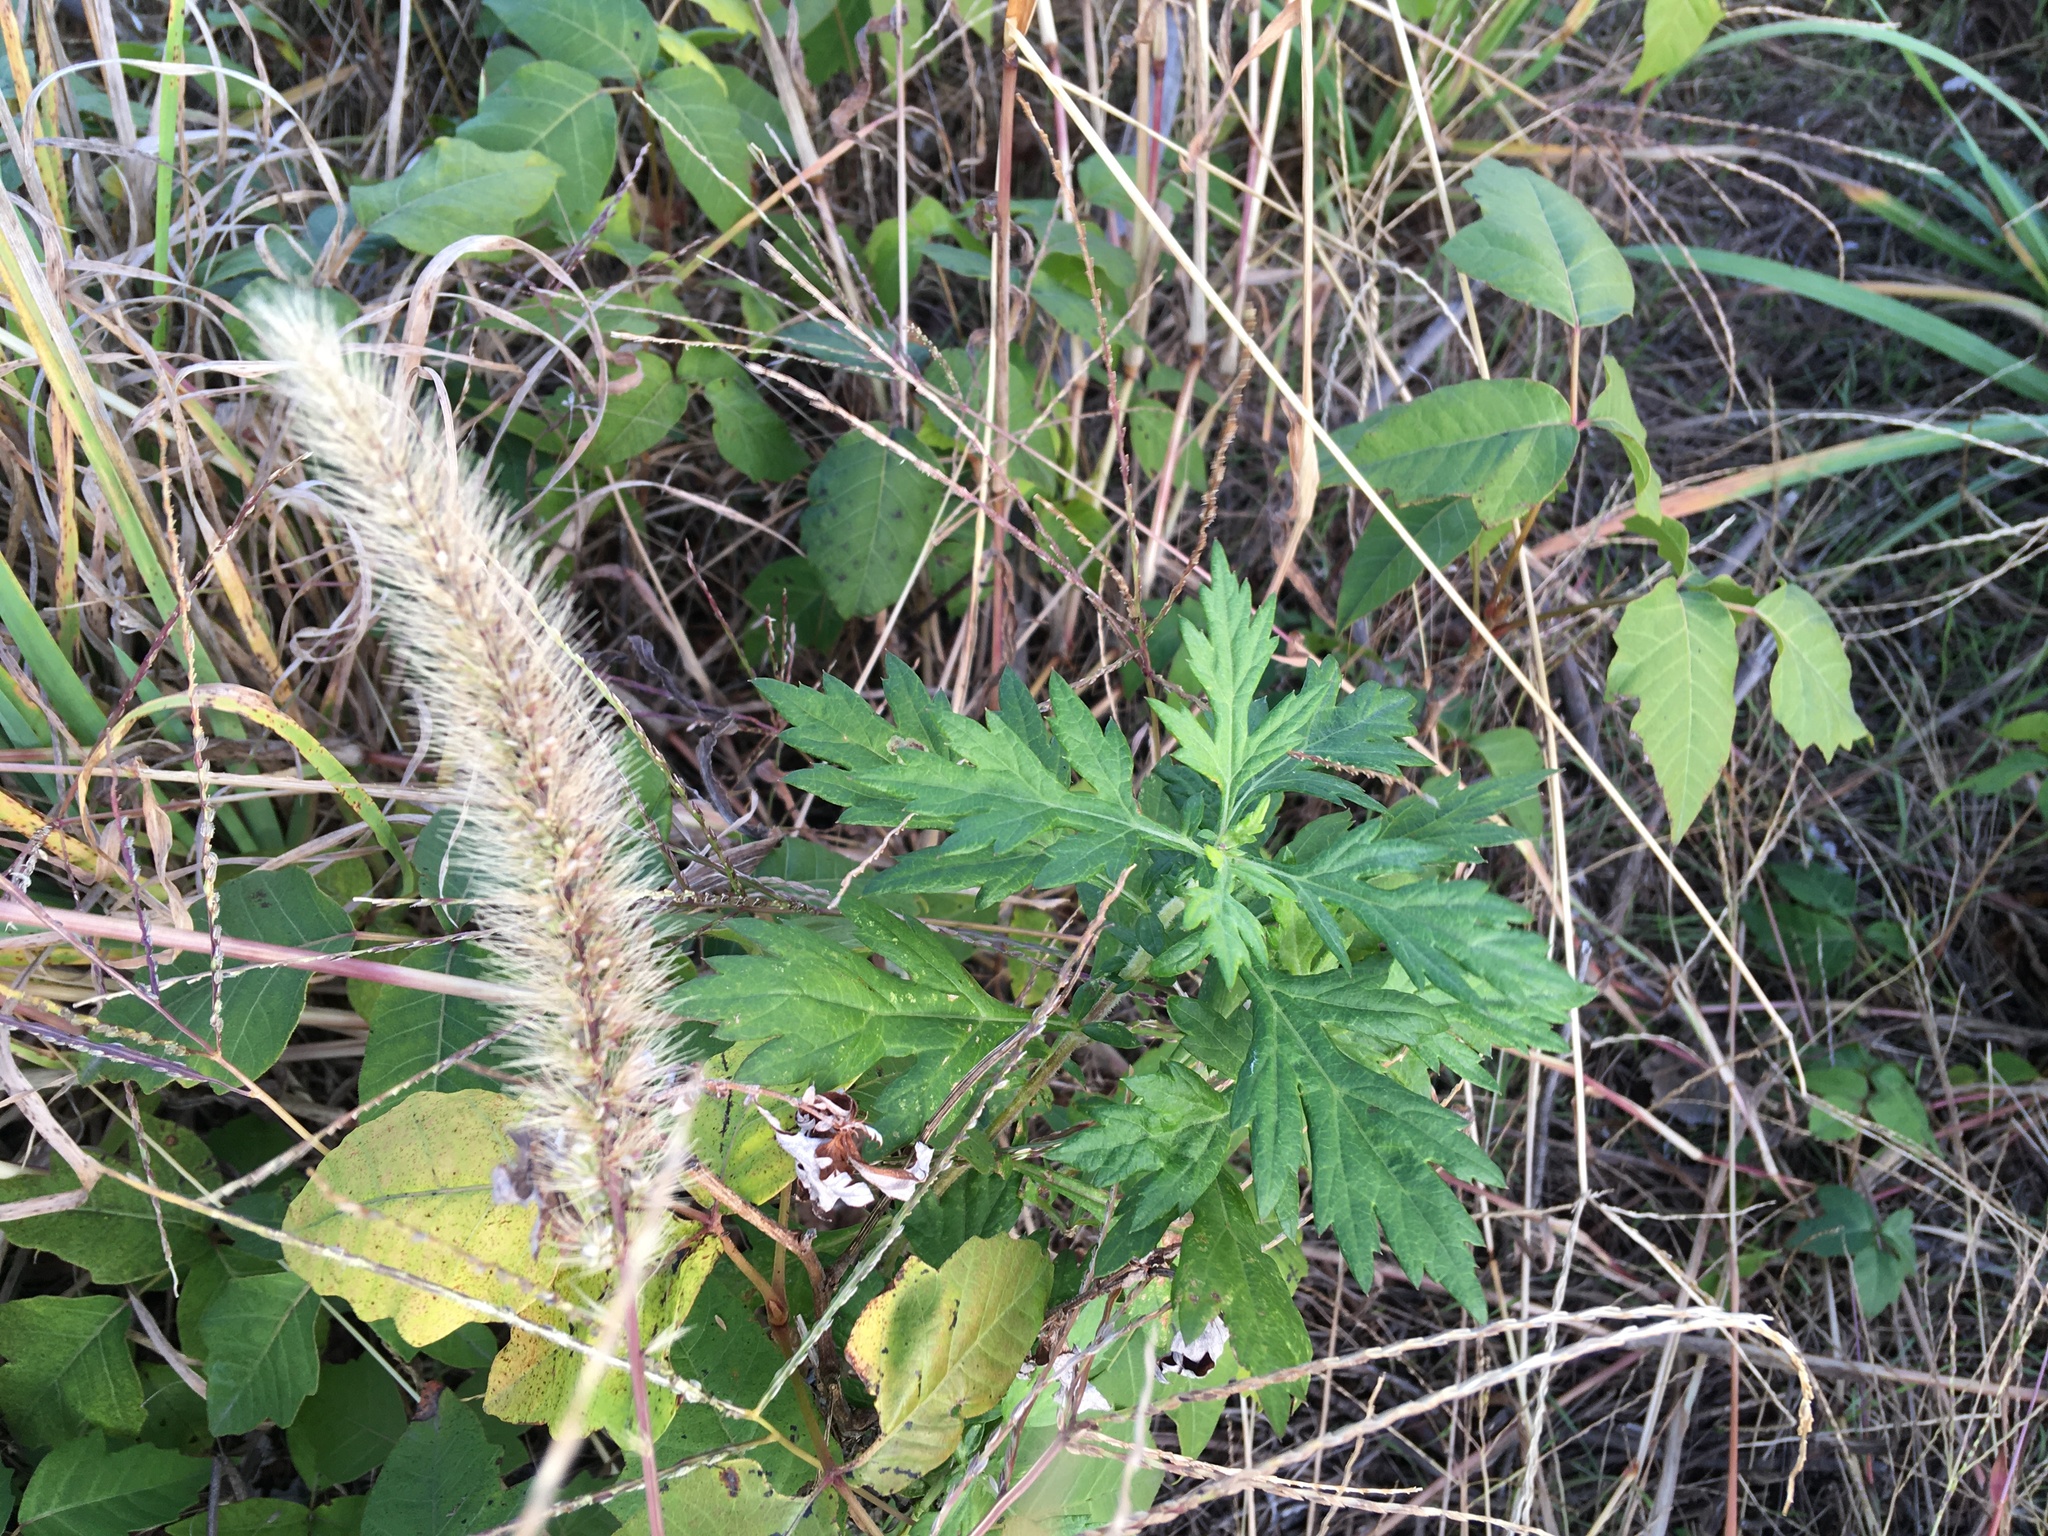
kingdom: Plantae
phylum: Tracheophyta
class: Magnoliopsida
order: Asterales
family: Asteraceae
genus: Artemisia
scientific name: Artemisia vulgaris
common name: Mugwort
